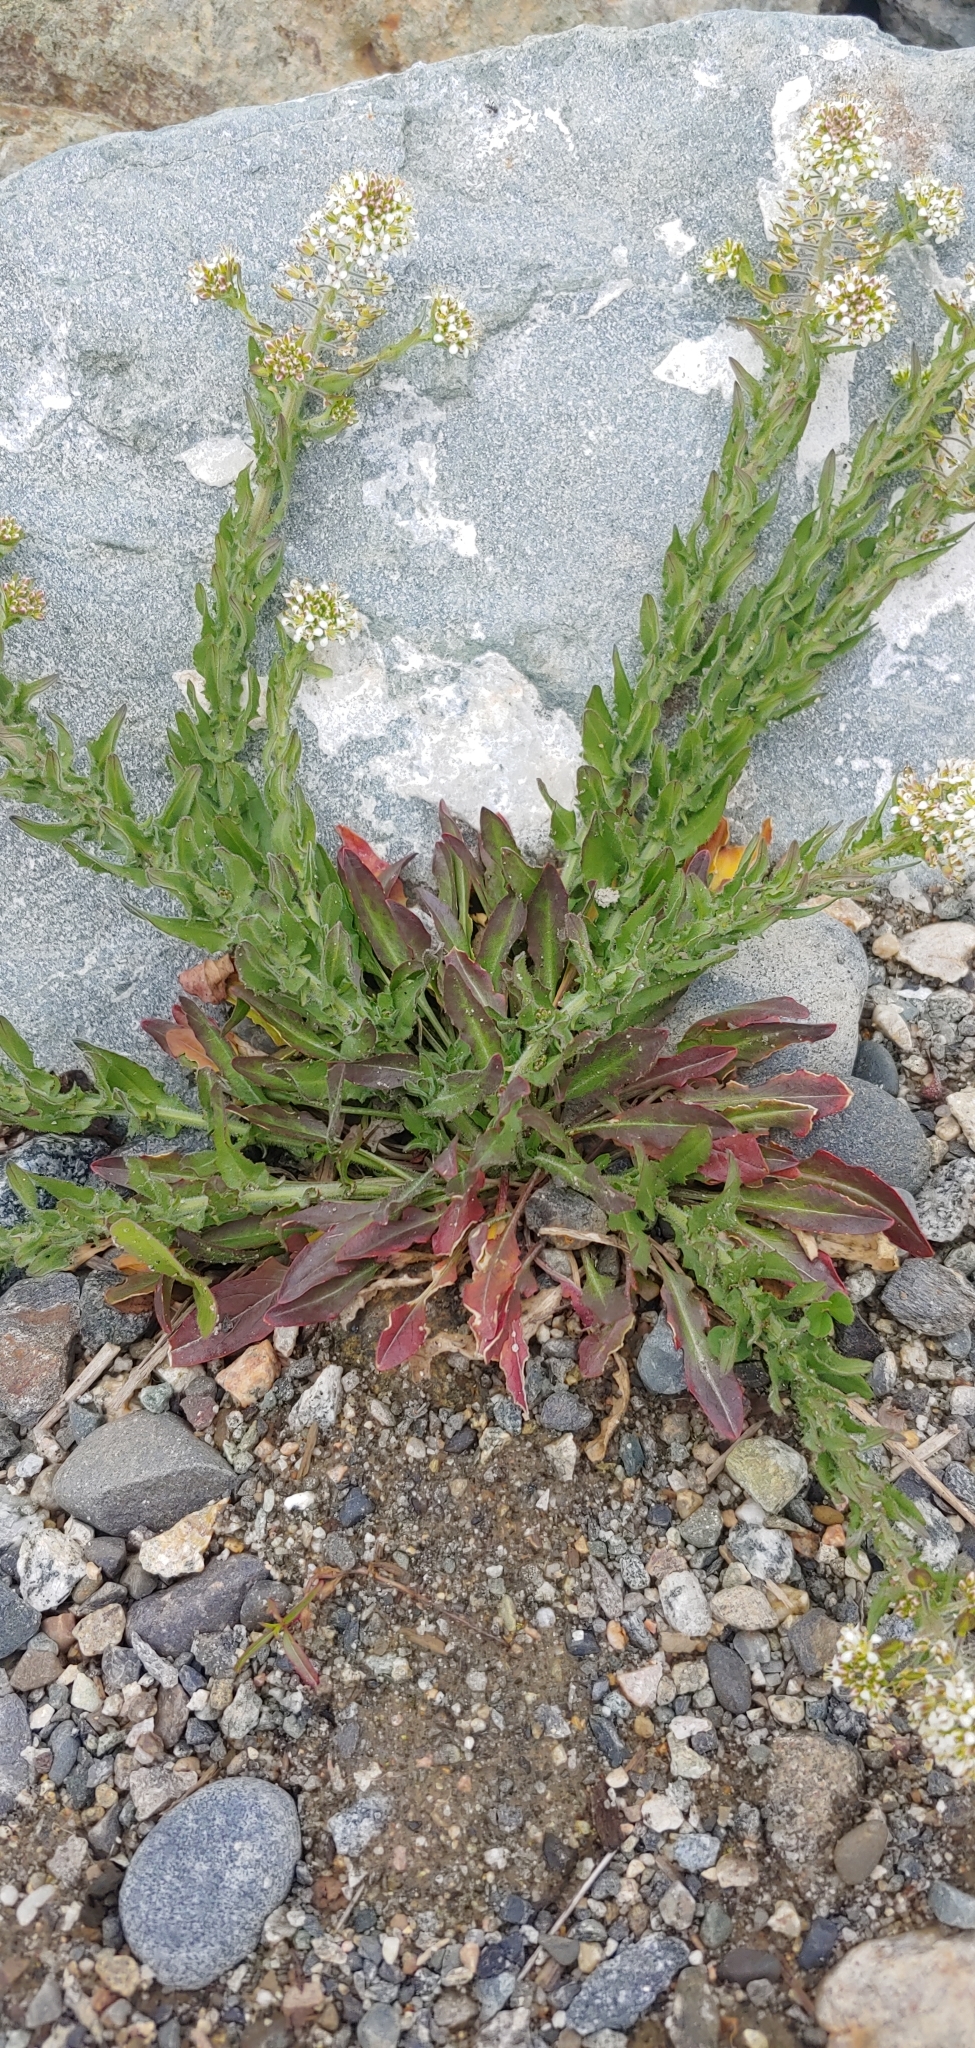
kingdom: Plantae
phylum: Tracheophyta
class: Magnoliopsida
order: Brassicales
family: Brassicaceae
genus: Lepidium
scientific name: Lepidium heterophyllum
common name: Smith's pepperwort
